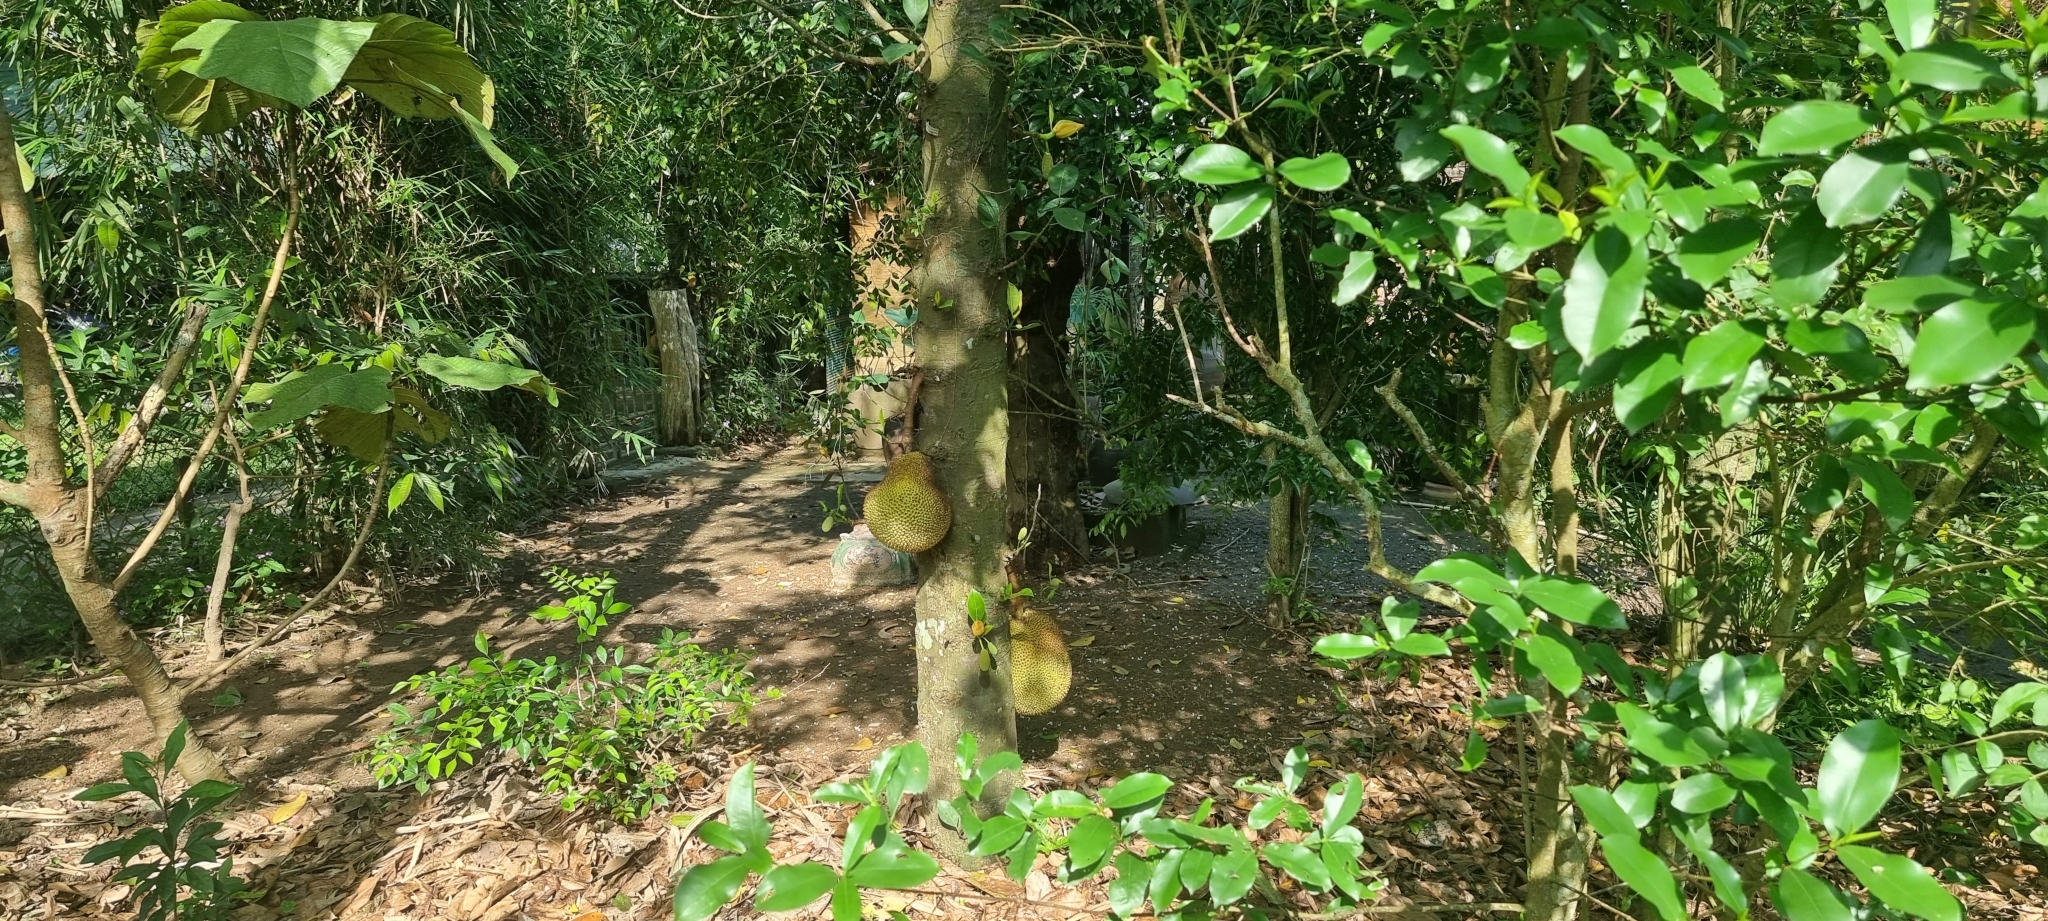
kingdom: Plantae
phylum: Tracheophyta
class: Magnoliopsida
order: Rosales
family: Moraceae
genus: Artocarpus
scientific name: Artocarpus heterophyllus
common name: Jackfruit
